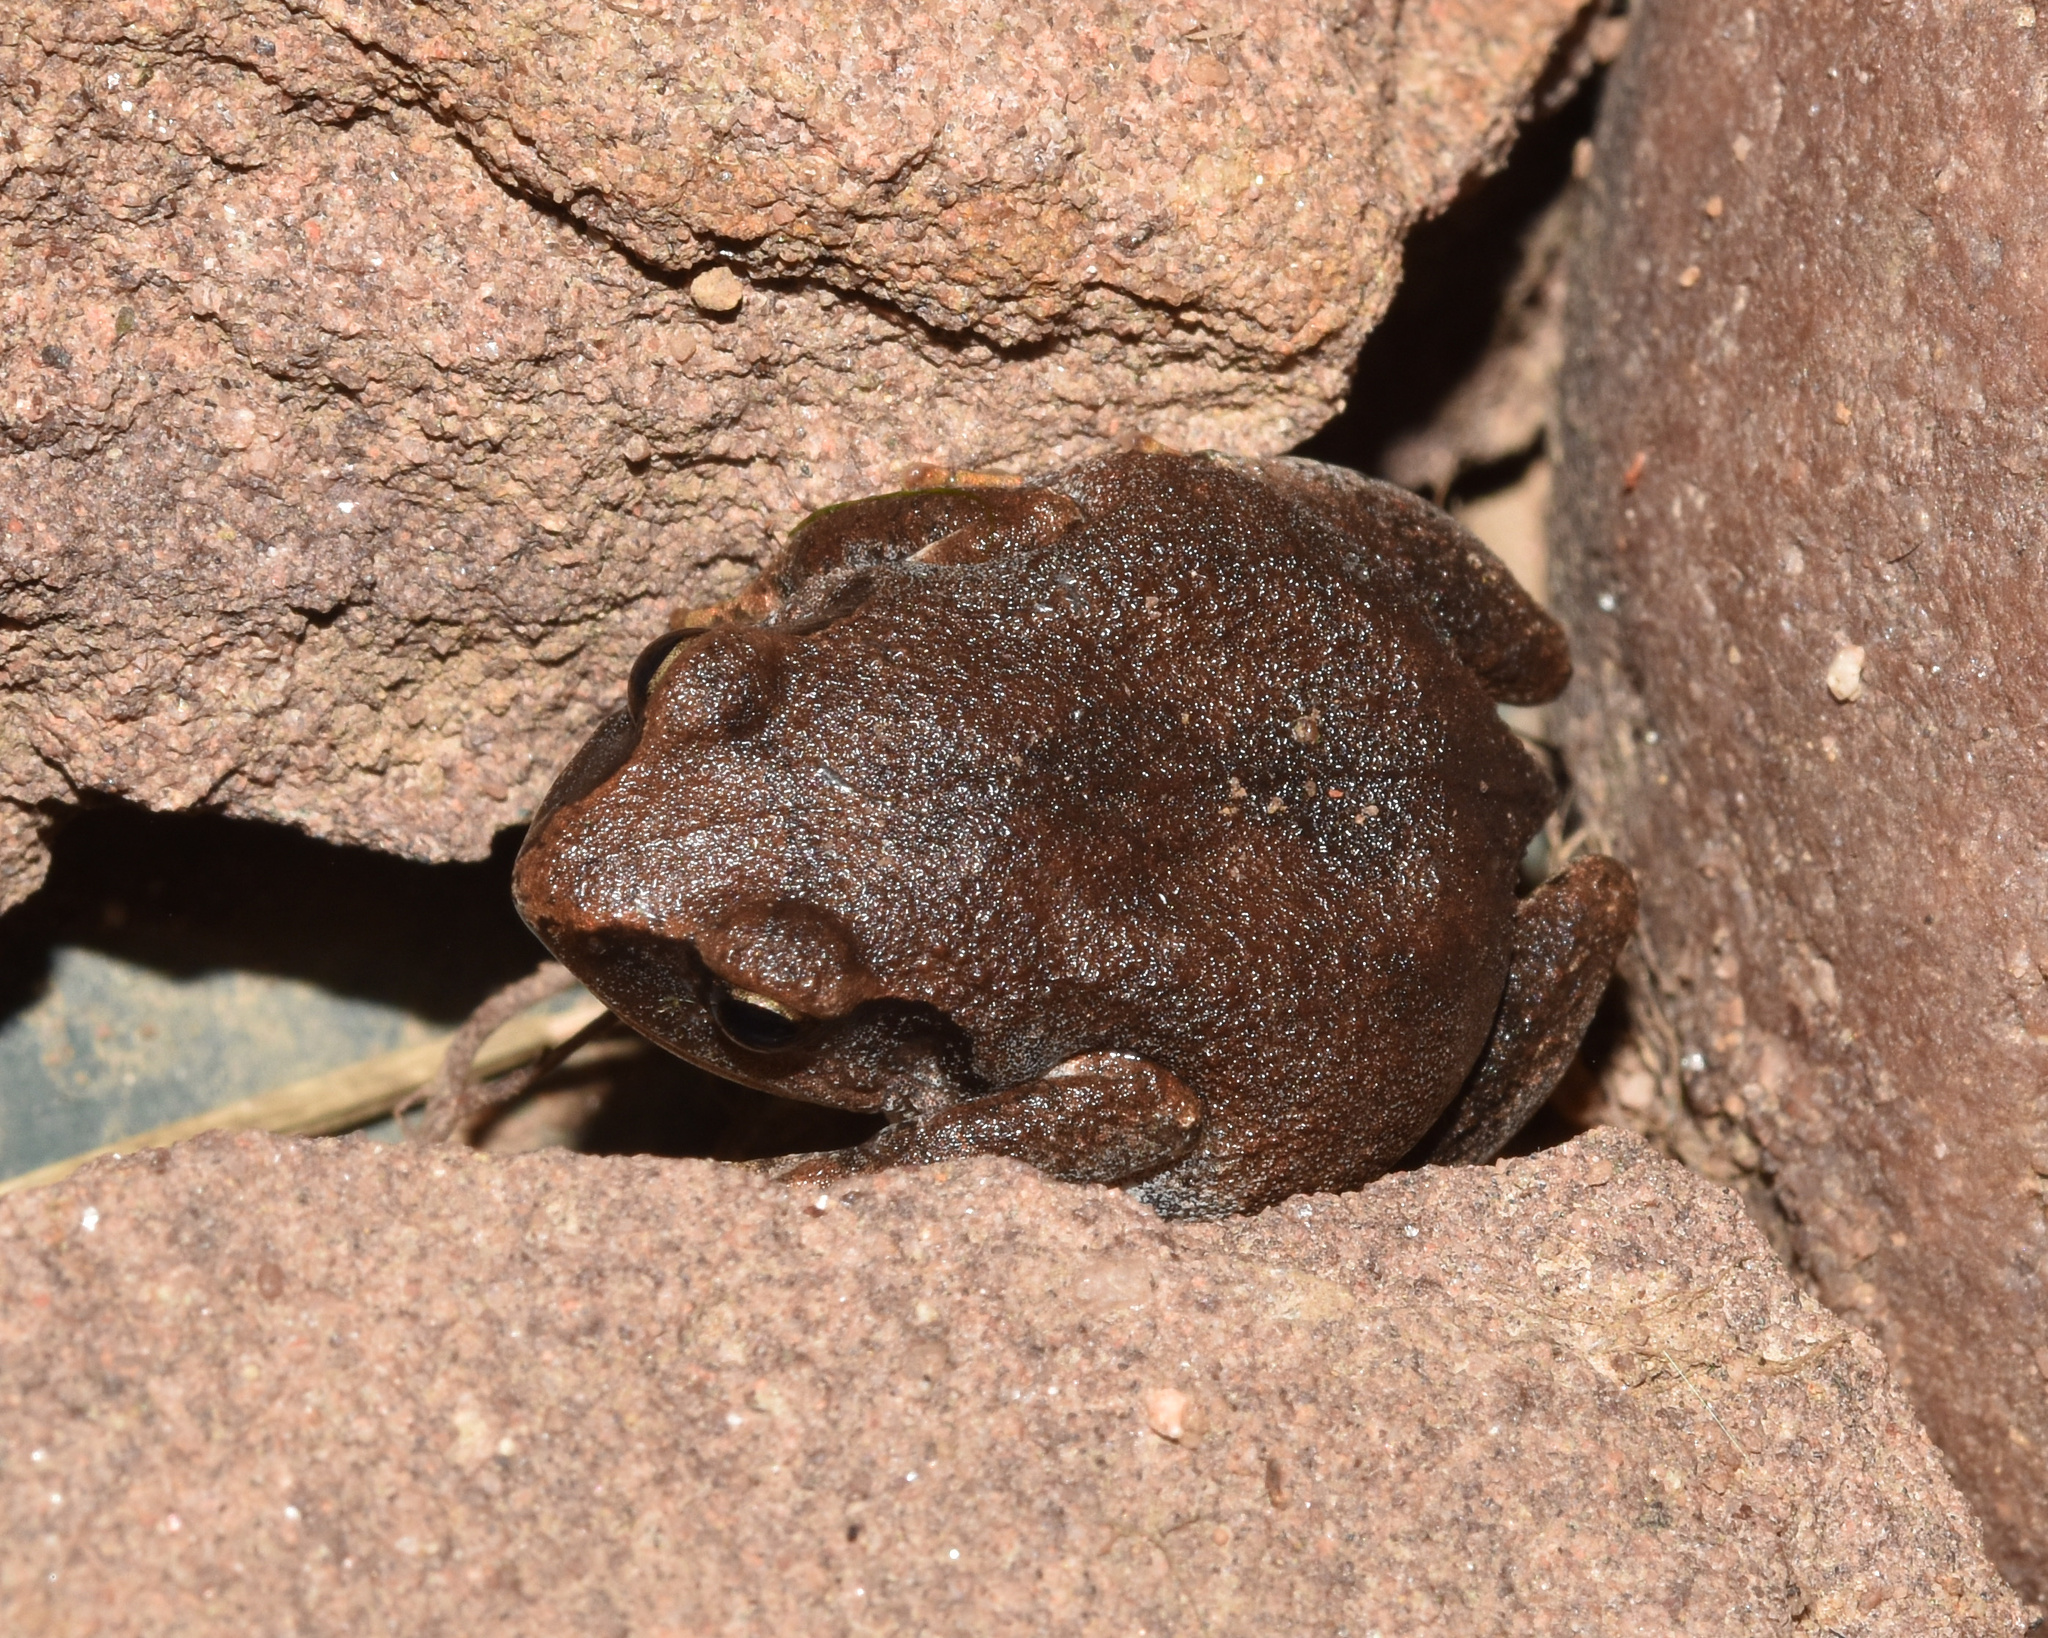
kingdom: Animalia
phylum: Chordata
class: Amphibia
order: Anura
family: Arthroleptidae
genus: Arthroleptis
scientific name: Arthroleptis wahlbergii
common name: Bush squeaker
